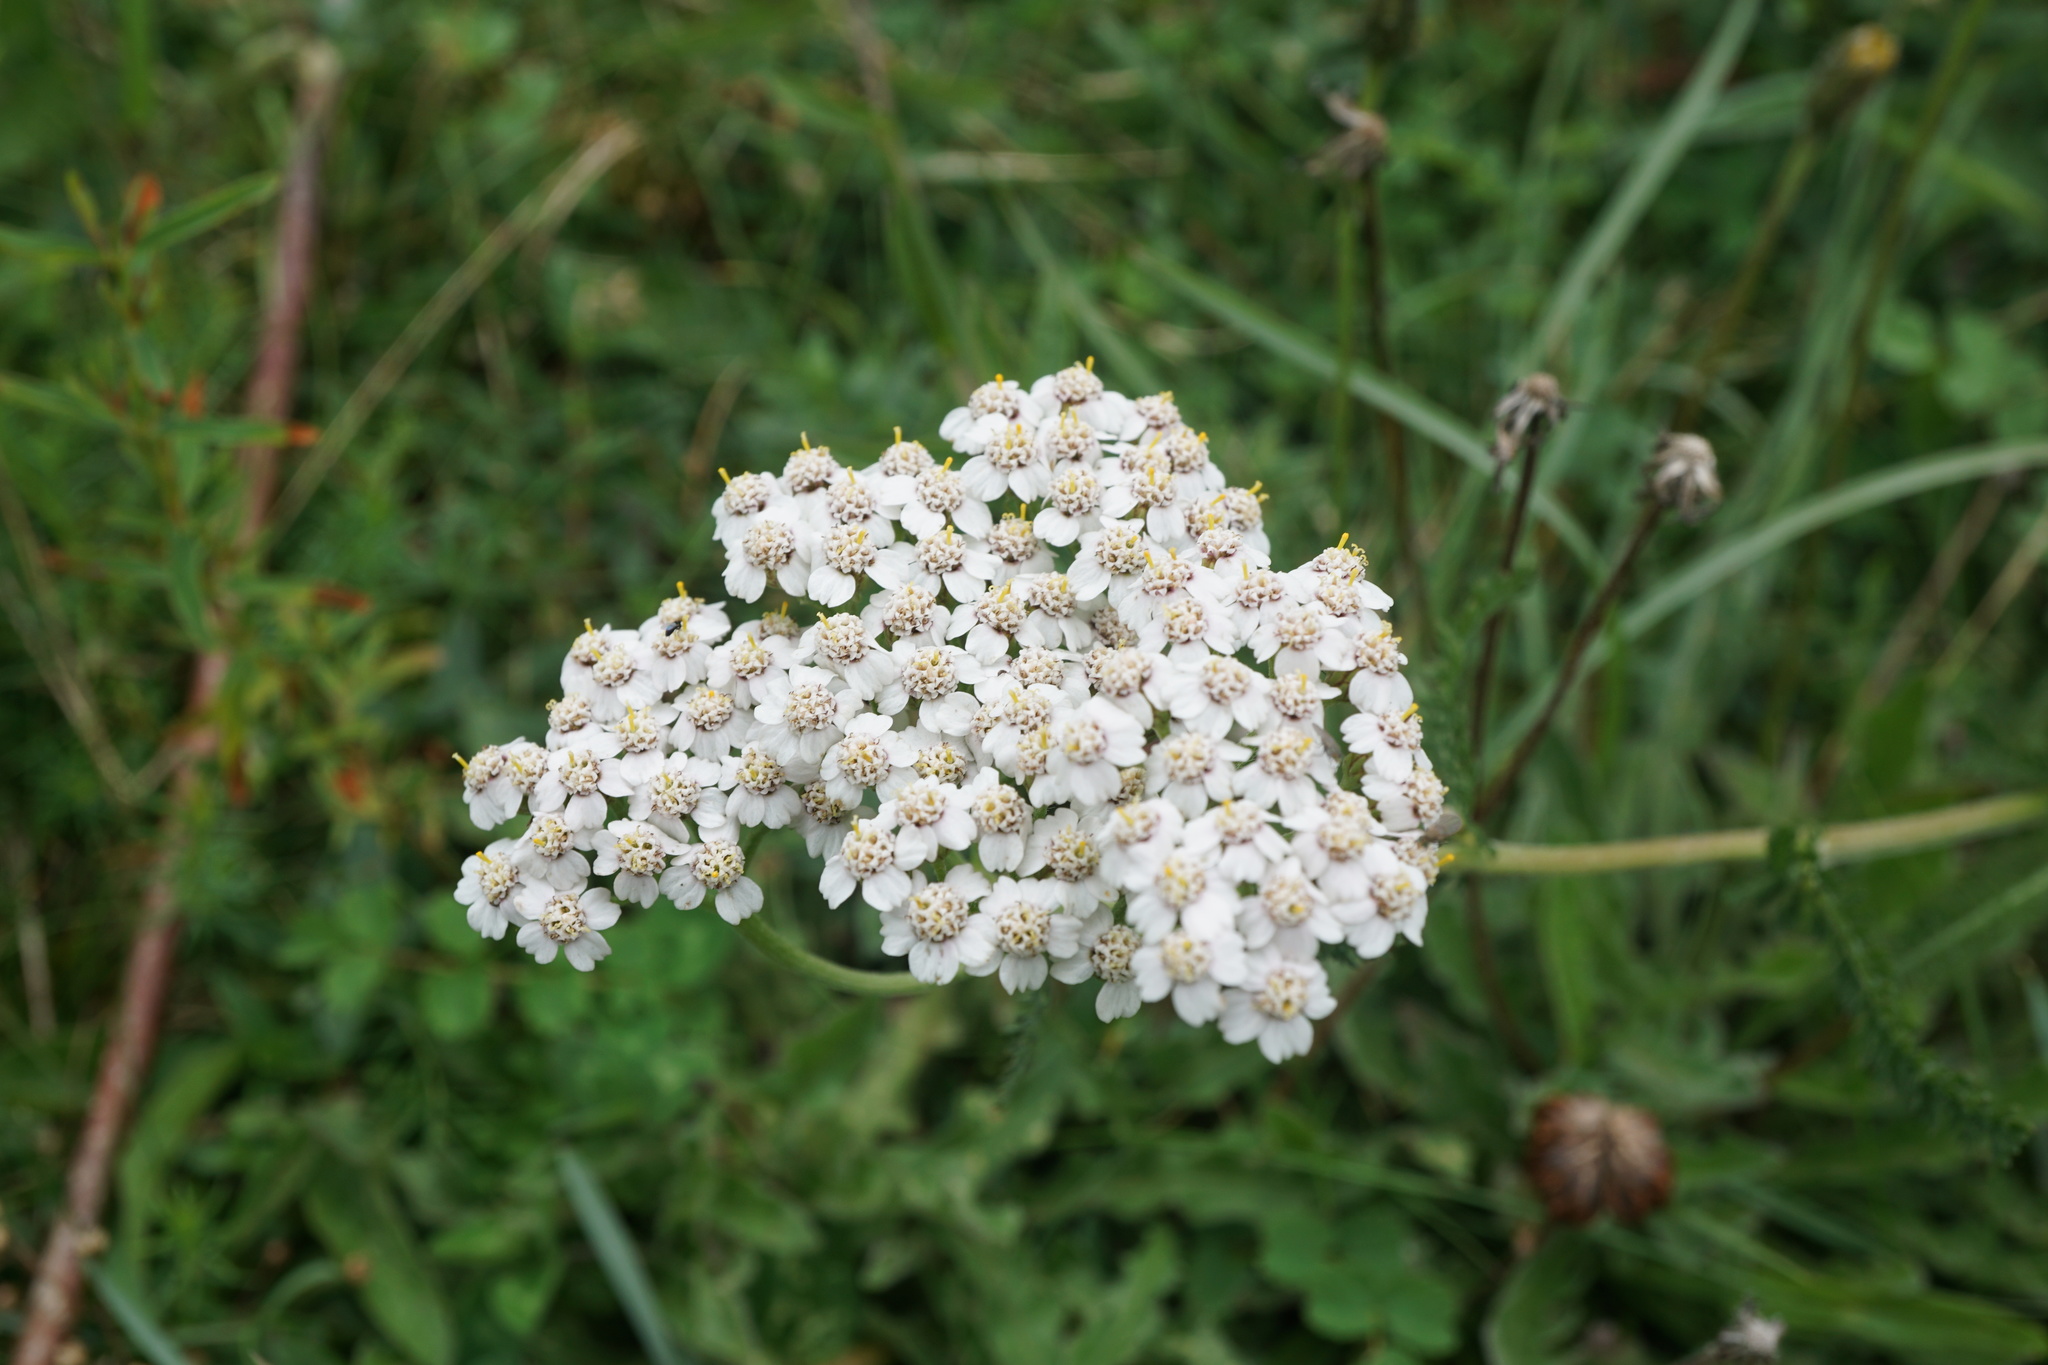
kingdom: Plantae
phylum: Tracheophyta
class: Magnoliopsida
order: Asterales
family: Asteraceae
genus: Achillea
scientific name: Achillea millefolium
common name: Yarrow
